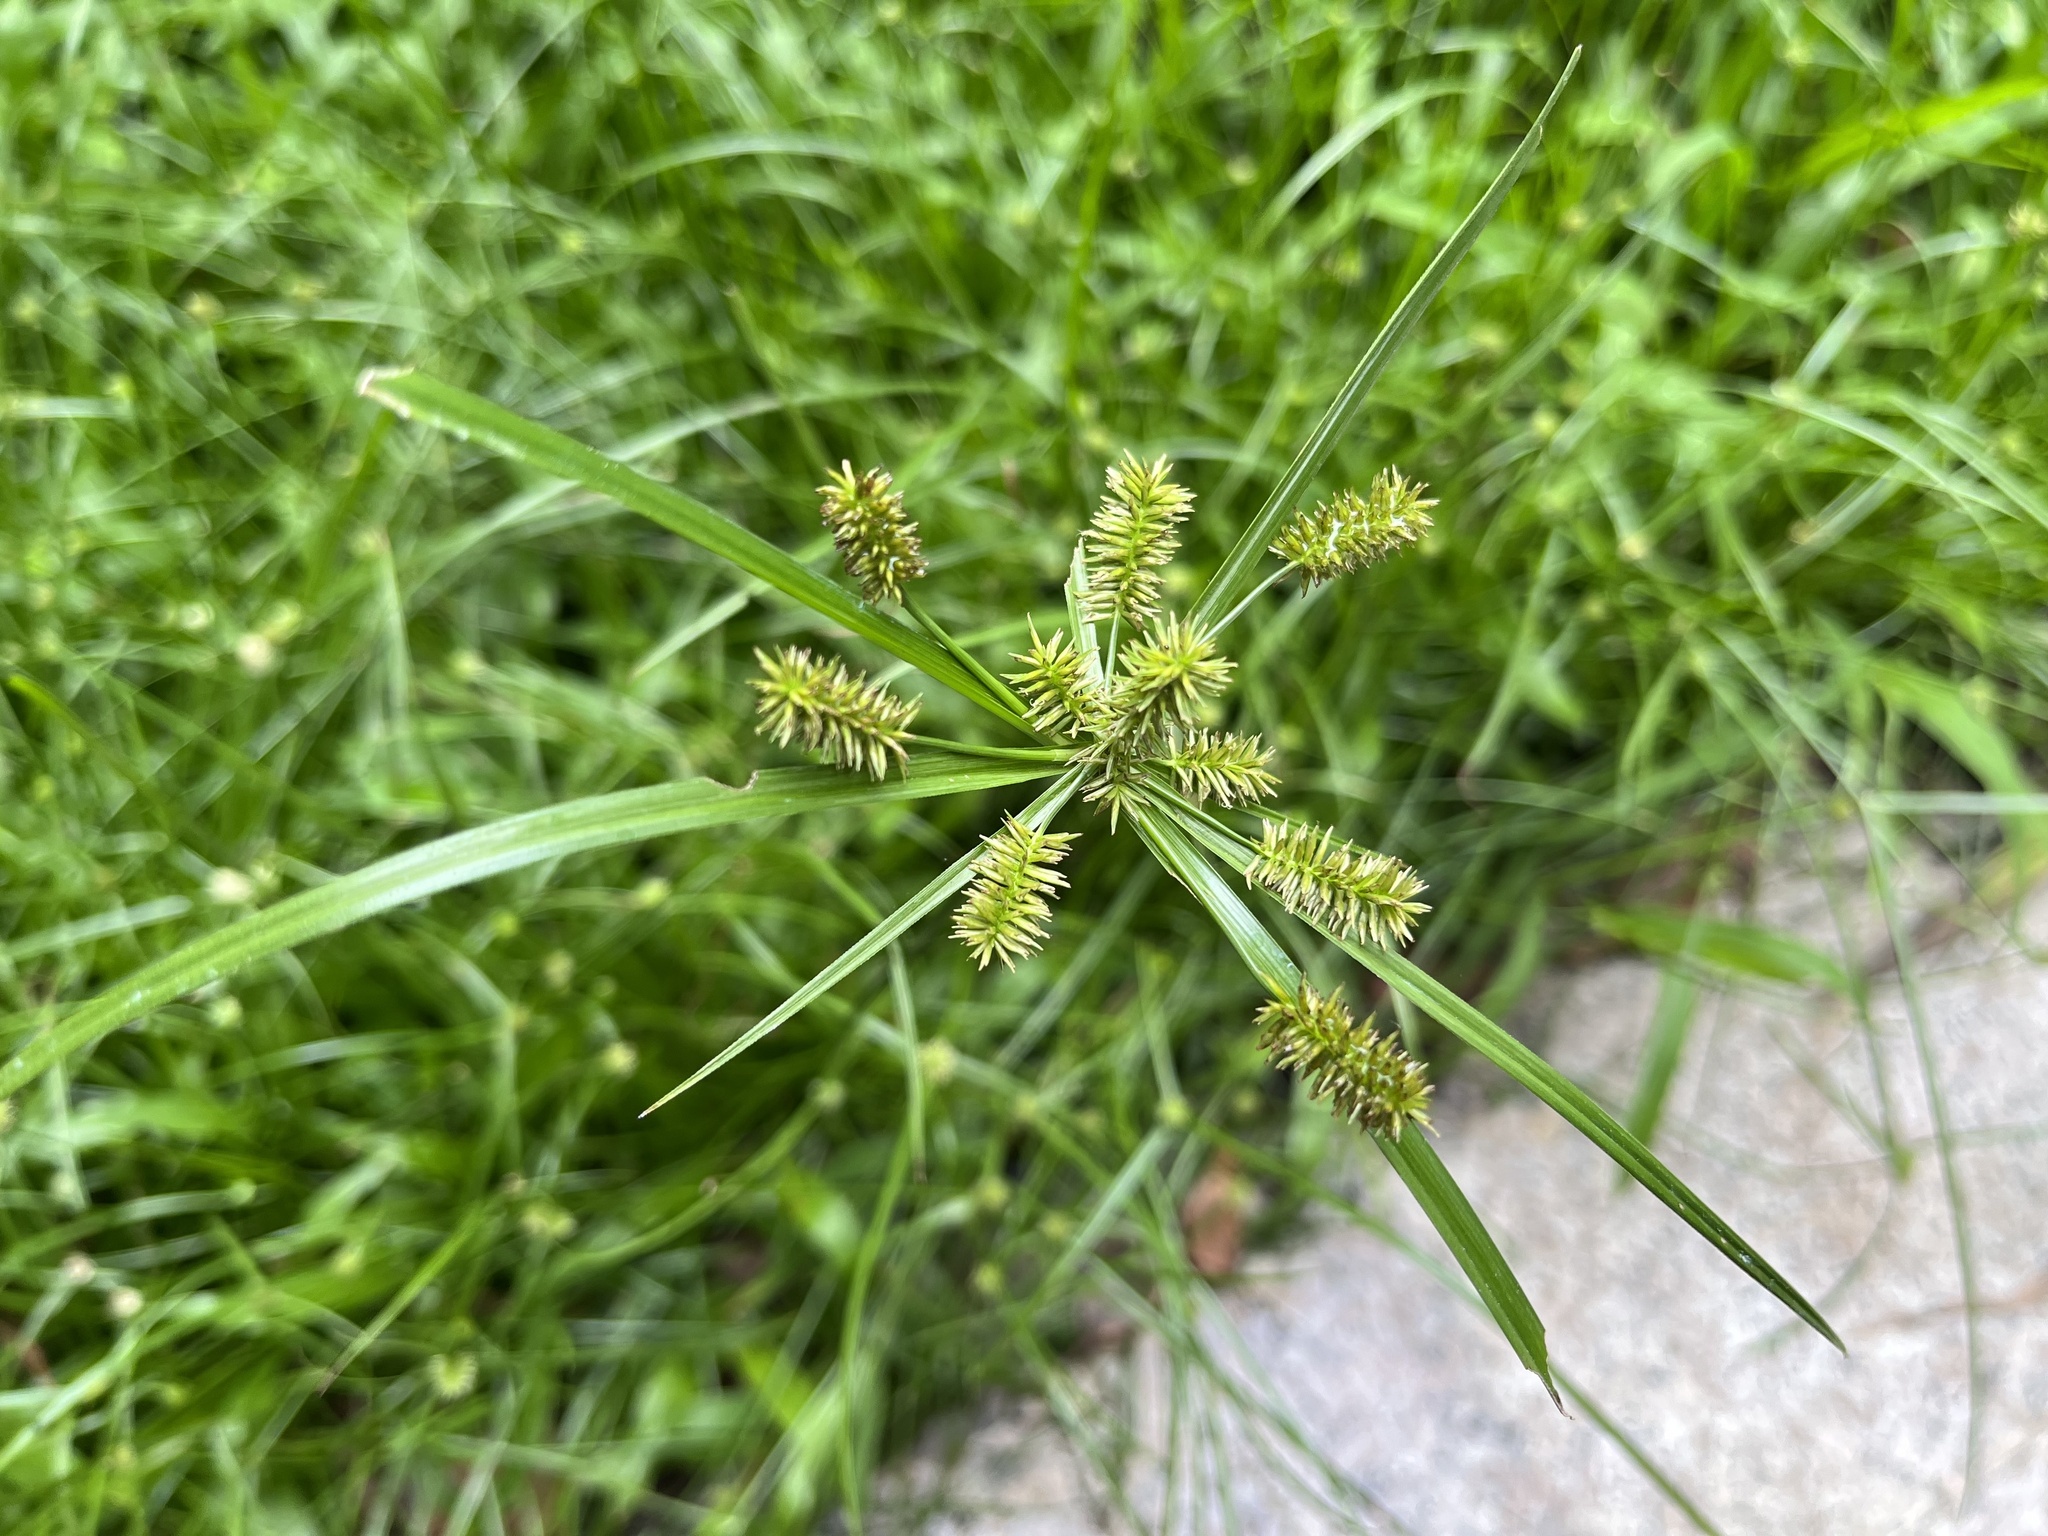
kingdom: Plantae
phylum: Tracheophyta
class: Liliopsida
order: Poales
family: Cyperaceae
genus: Cyperus
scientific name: Cyperus cyperoides
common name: Pacific island flat sedge
